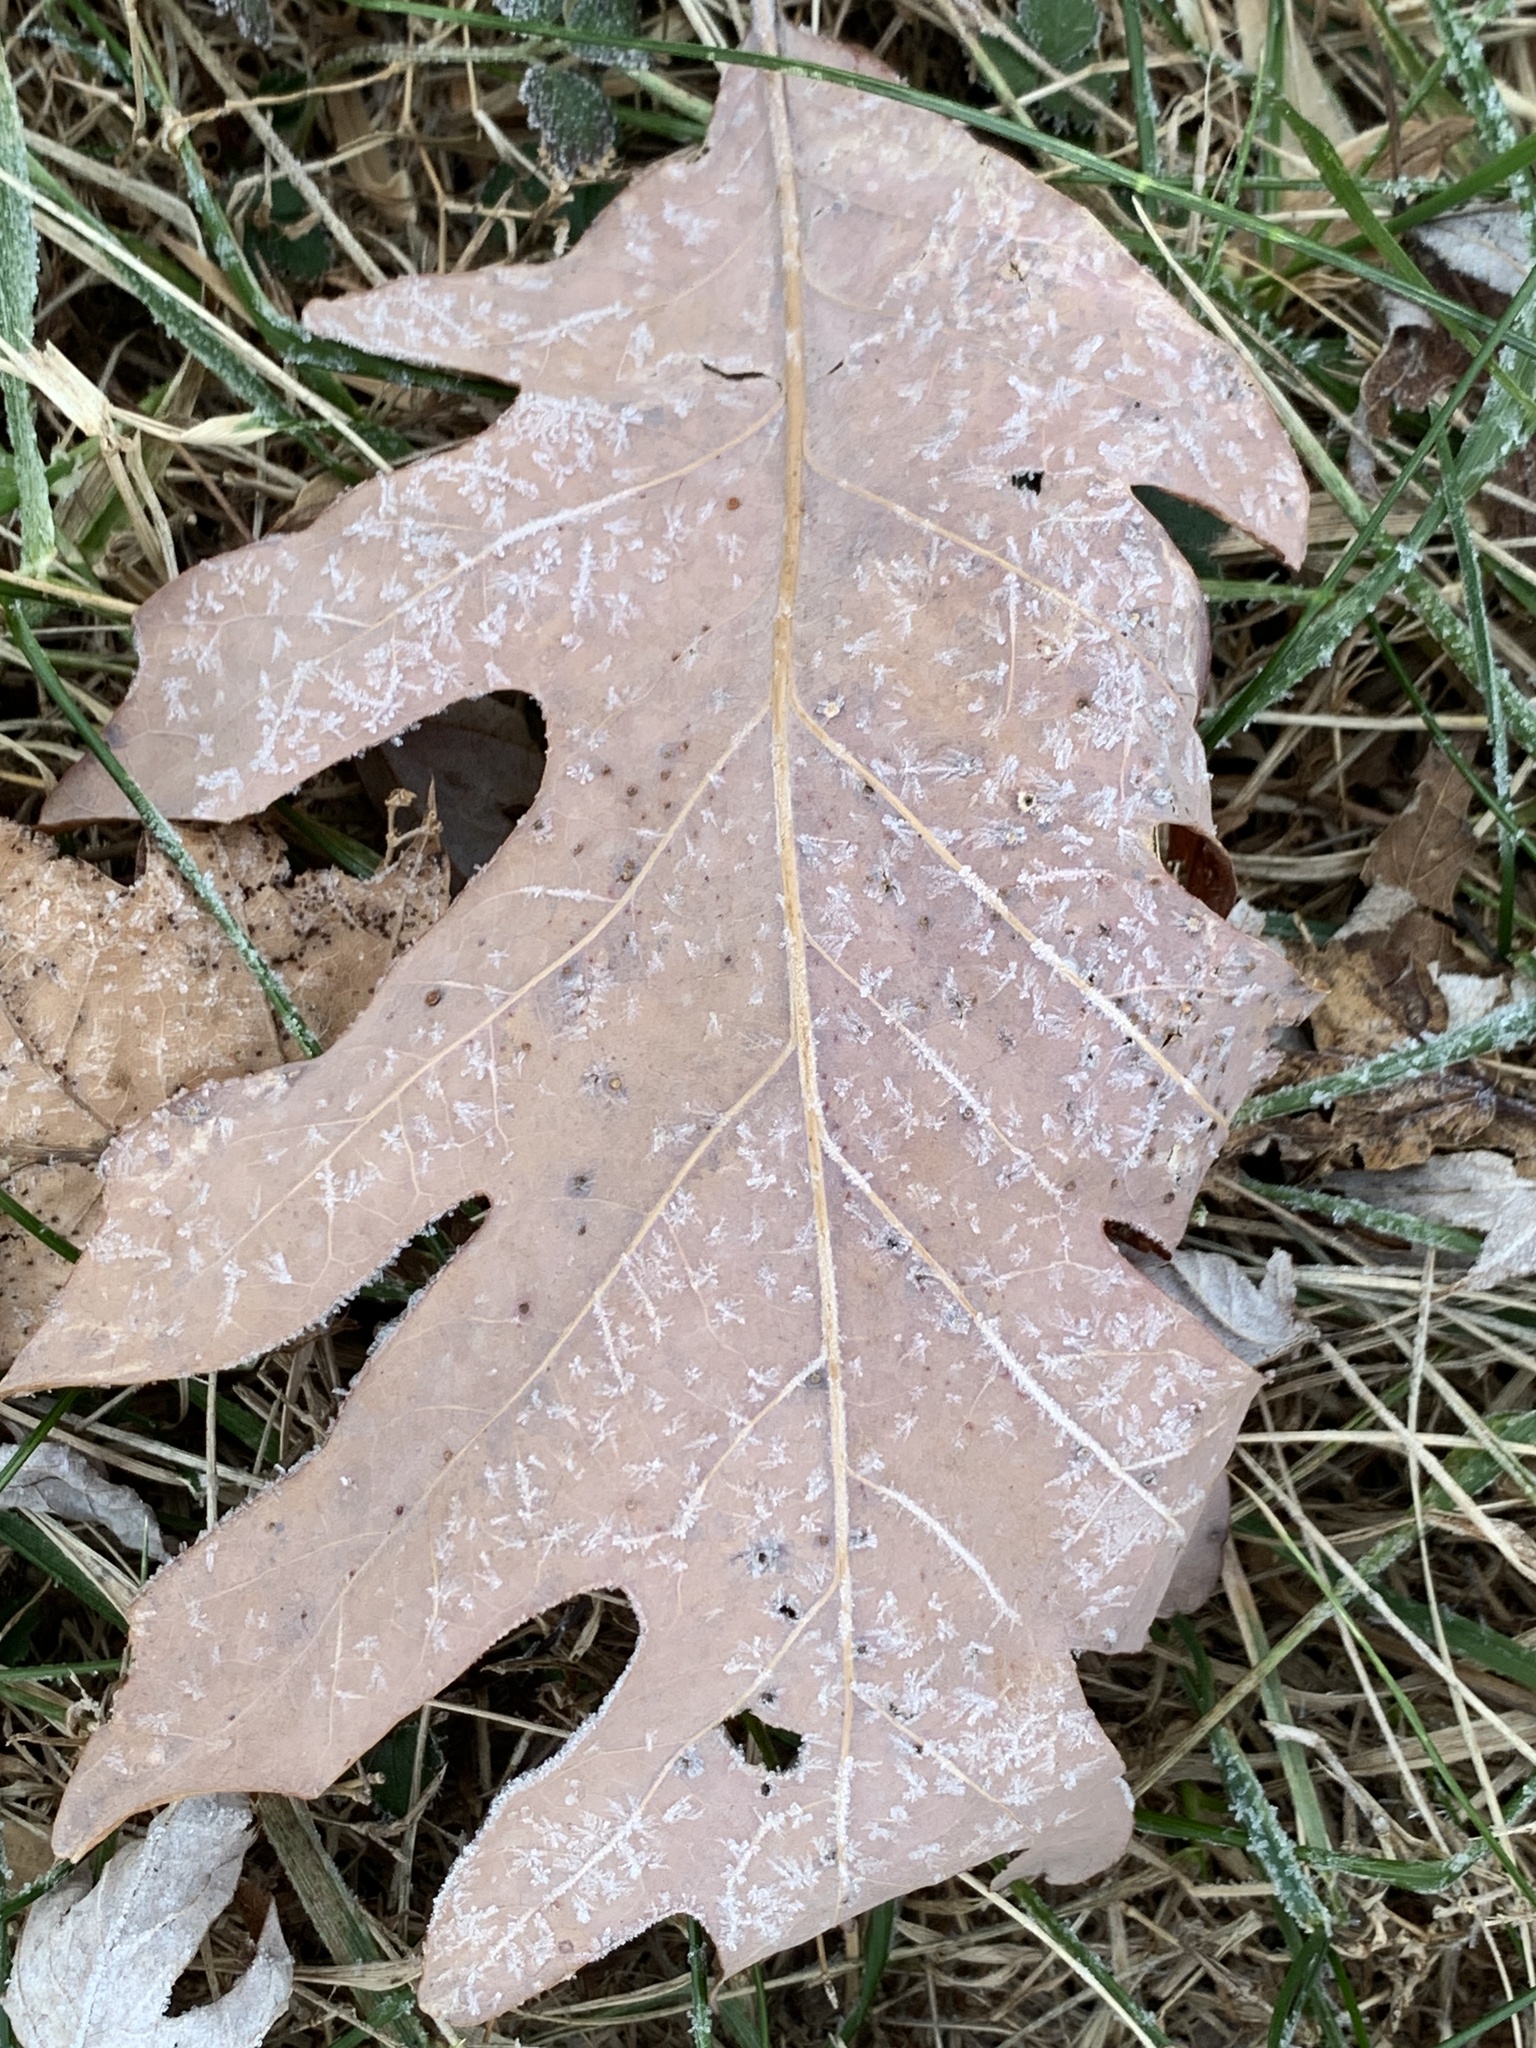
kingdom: Plantae
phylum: Tracheophyta
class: Magnoliopsida
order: Fagales
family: Fagaceae
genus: Quercus
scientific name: Quercus alba
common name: White oak
